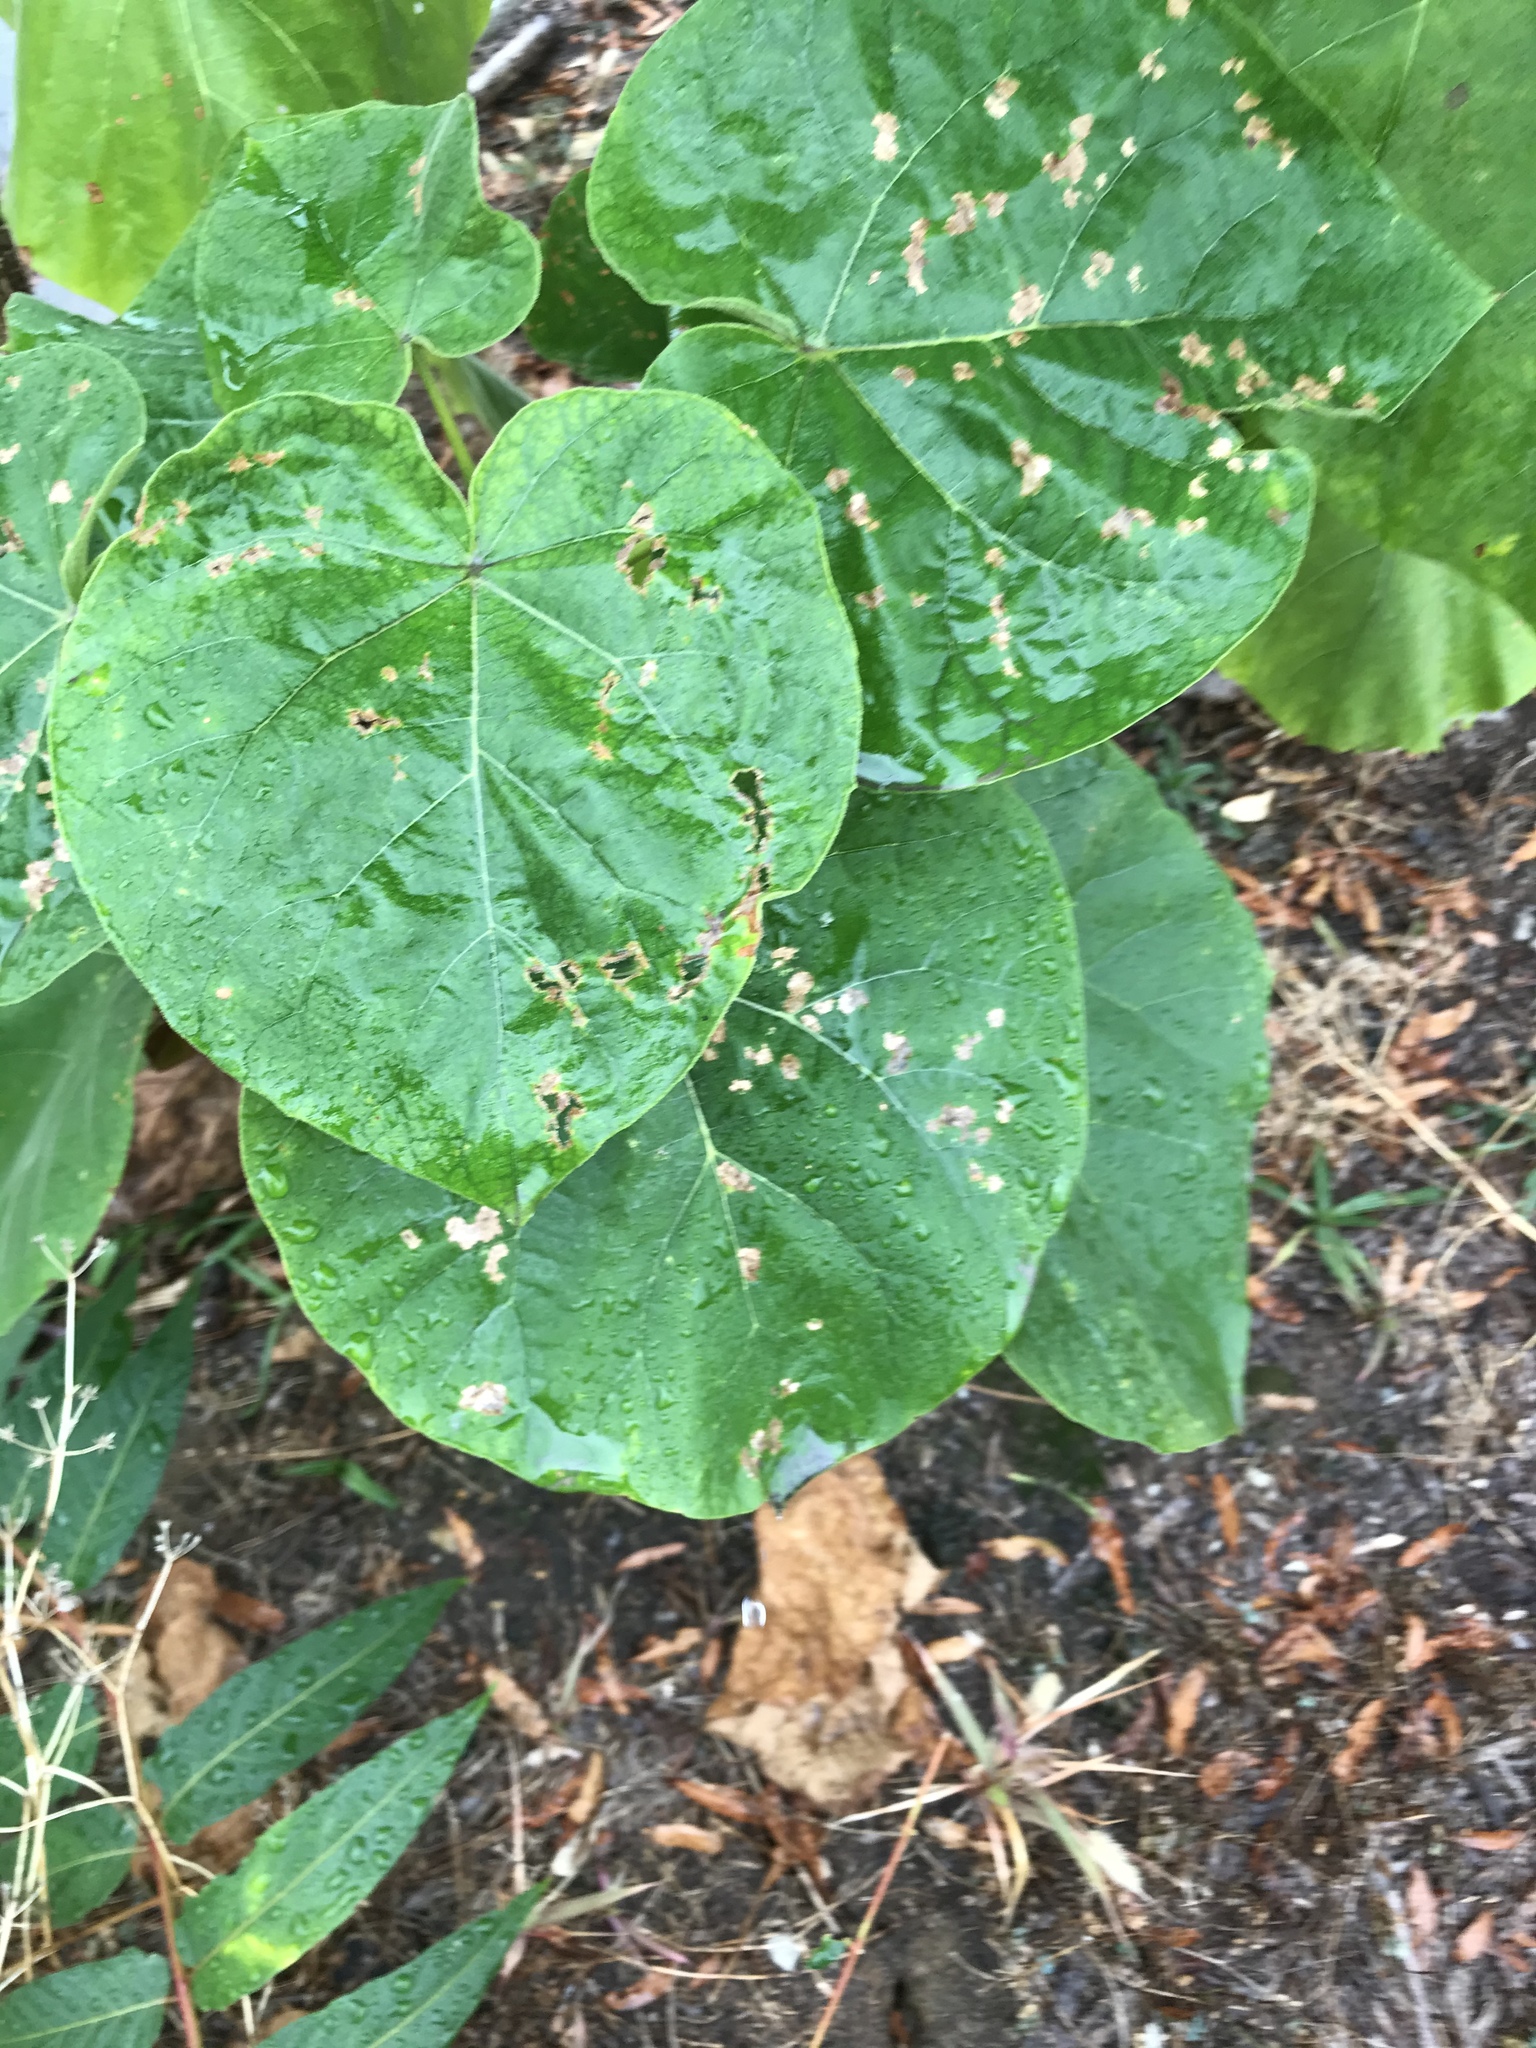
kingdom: Plantae
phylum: Tracheophyta
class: Magnoliopsida
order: Lamiales
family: Paulowniaceae
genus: Paulownia
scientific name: Paulownia tomentosa
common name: Foxglove-tree
